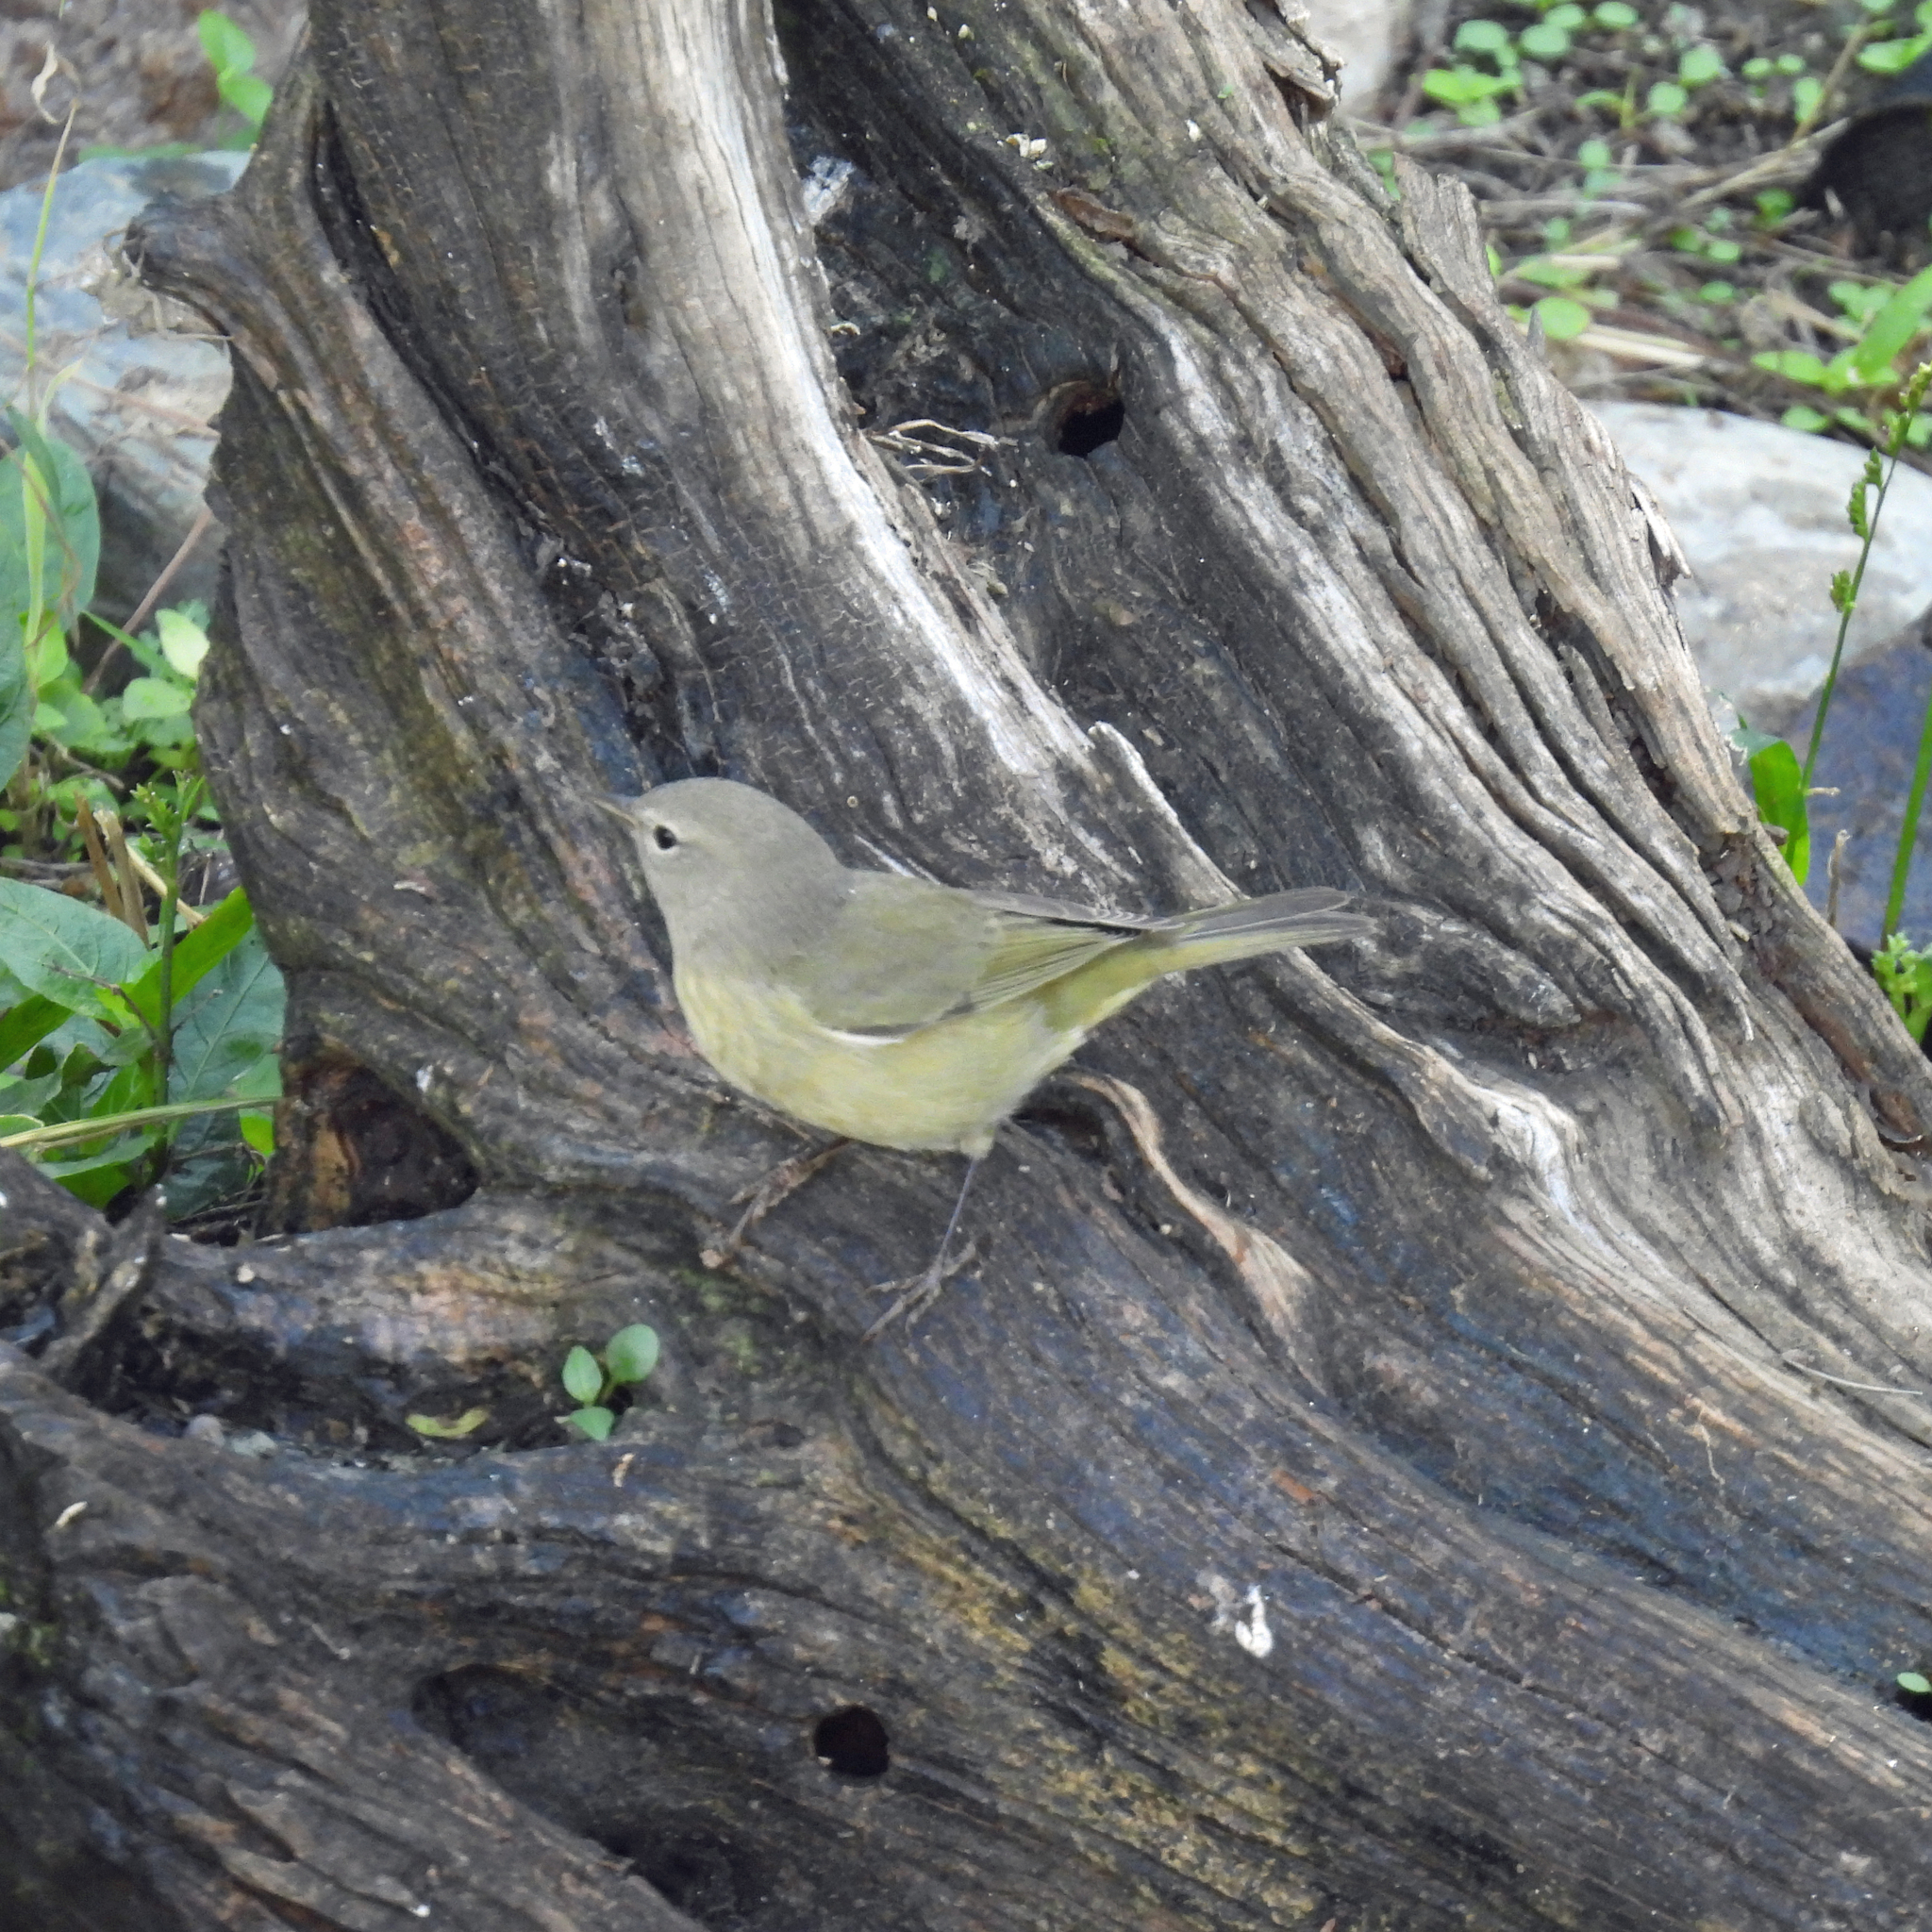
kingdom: Animalia
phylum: Chordata
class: Aves
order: Passeriformes
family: Parulidae
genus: Leiothlypis
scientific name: Leiothlypis celata
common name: Orange-crowned warbler
